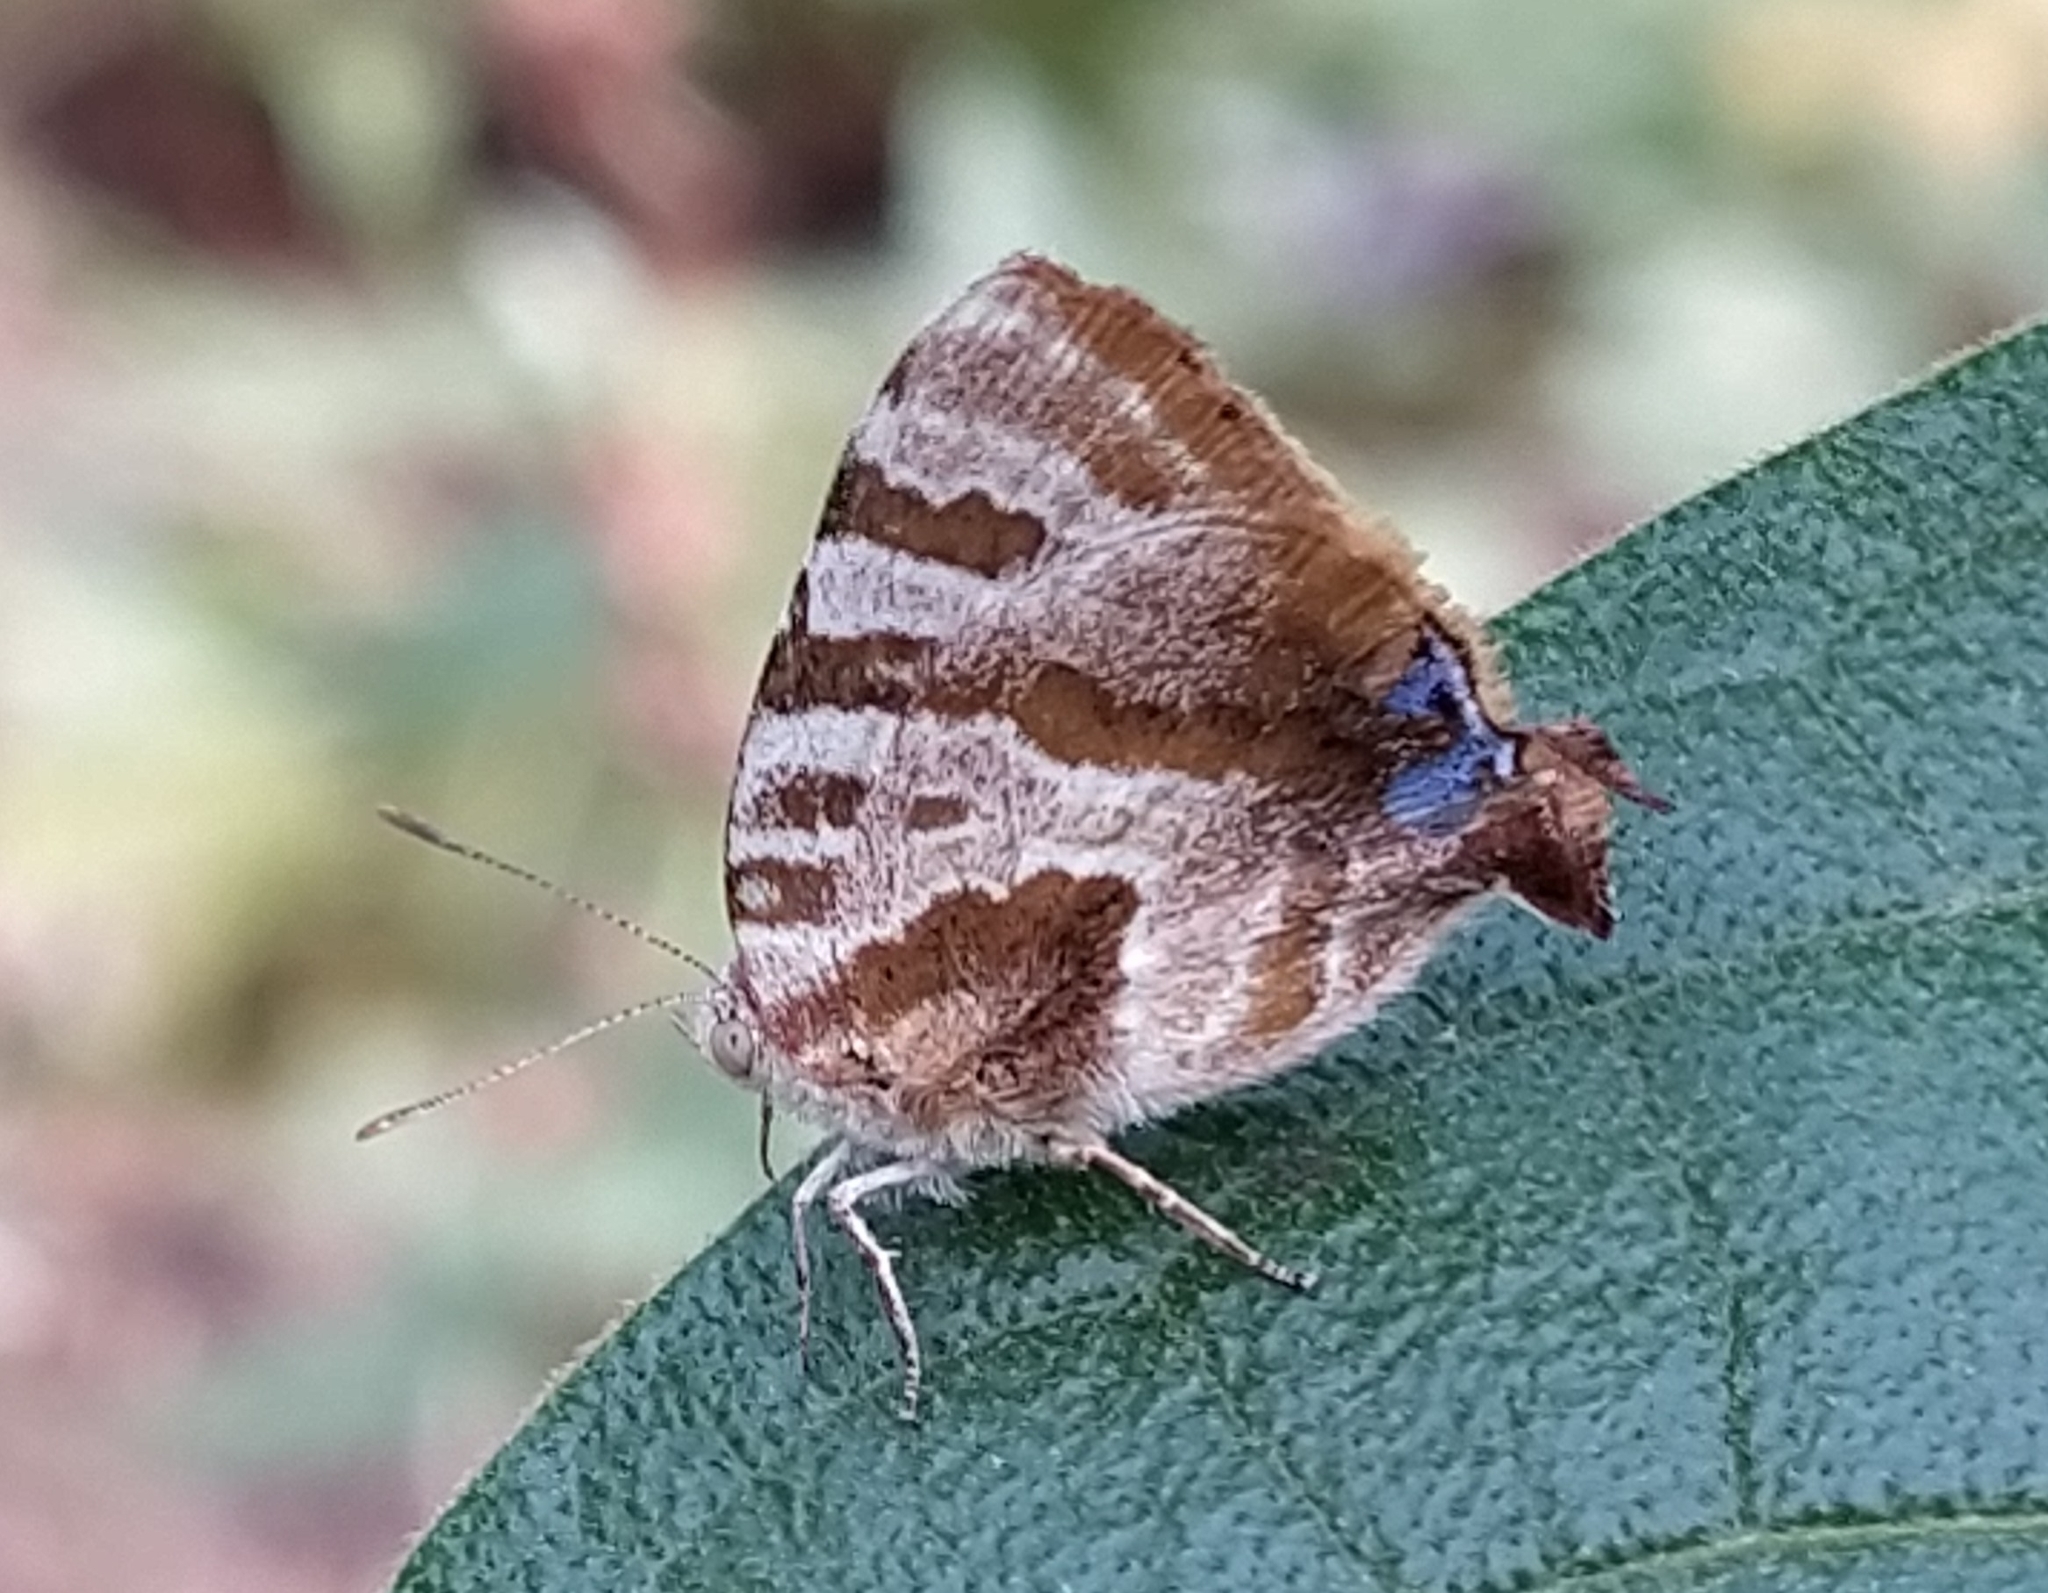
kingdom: Animalia
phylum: Arthropoda
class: Insecta
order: Lepidoptera
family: Lycaenidae
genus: Arawacus
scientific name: Arawacus ellida
